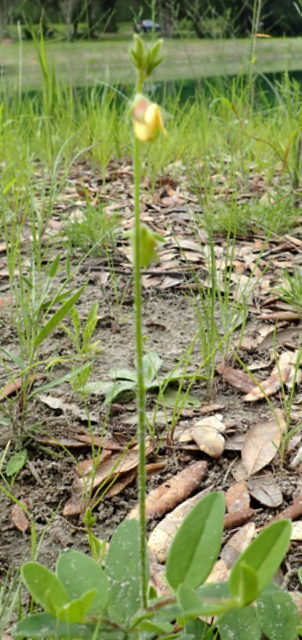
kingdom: Plantae
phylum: Tracheophyta
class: Magnoliopsida
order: Fabales
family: Fabaceae
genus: Crotalaria
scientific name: Crotalaria rotundifolia
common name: Prostrate rattlebox
